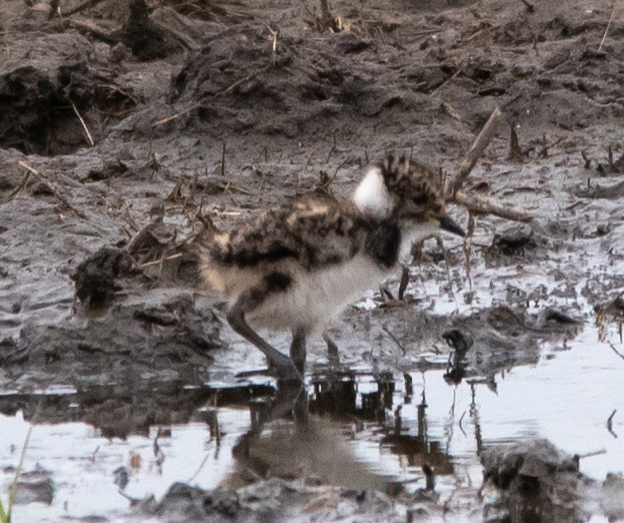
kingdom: Animalia
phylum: Chordata
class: Aves
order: Charadriiformes
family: Charadriidae
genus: Vanellus
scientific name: Vanellus vanellus
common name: Northern lapwing
